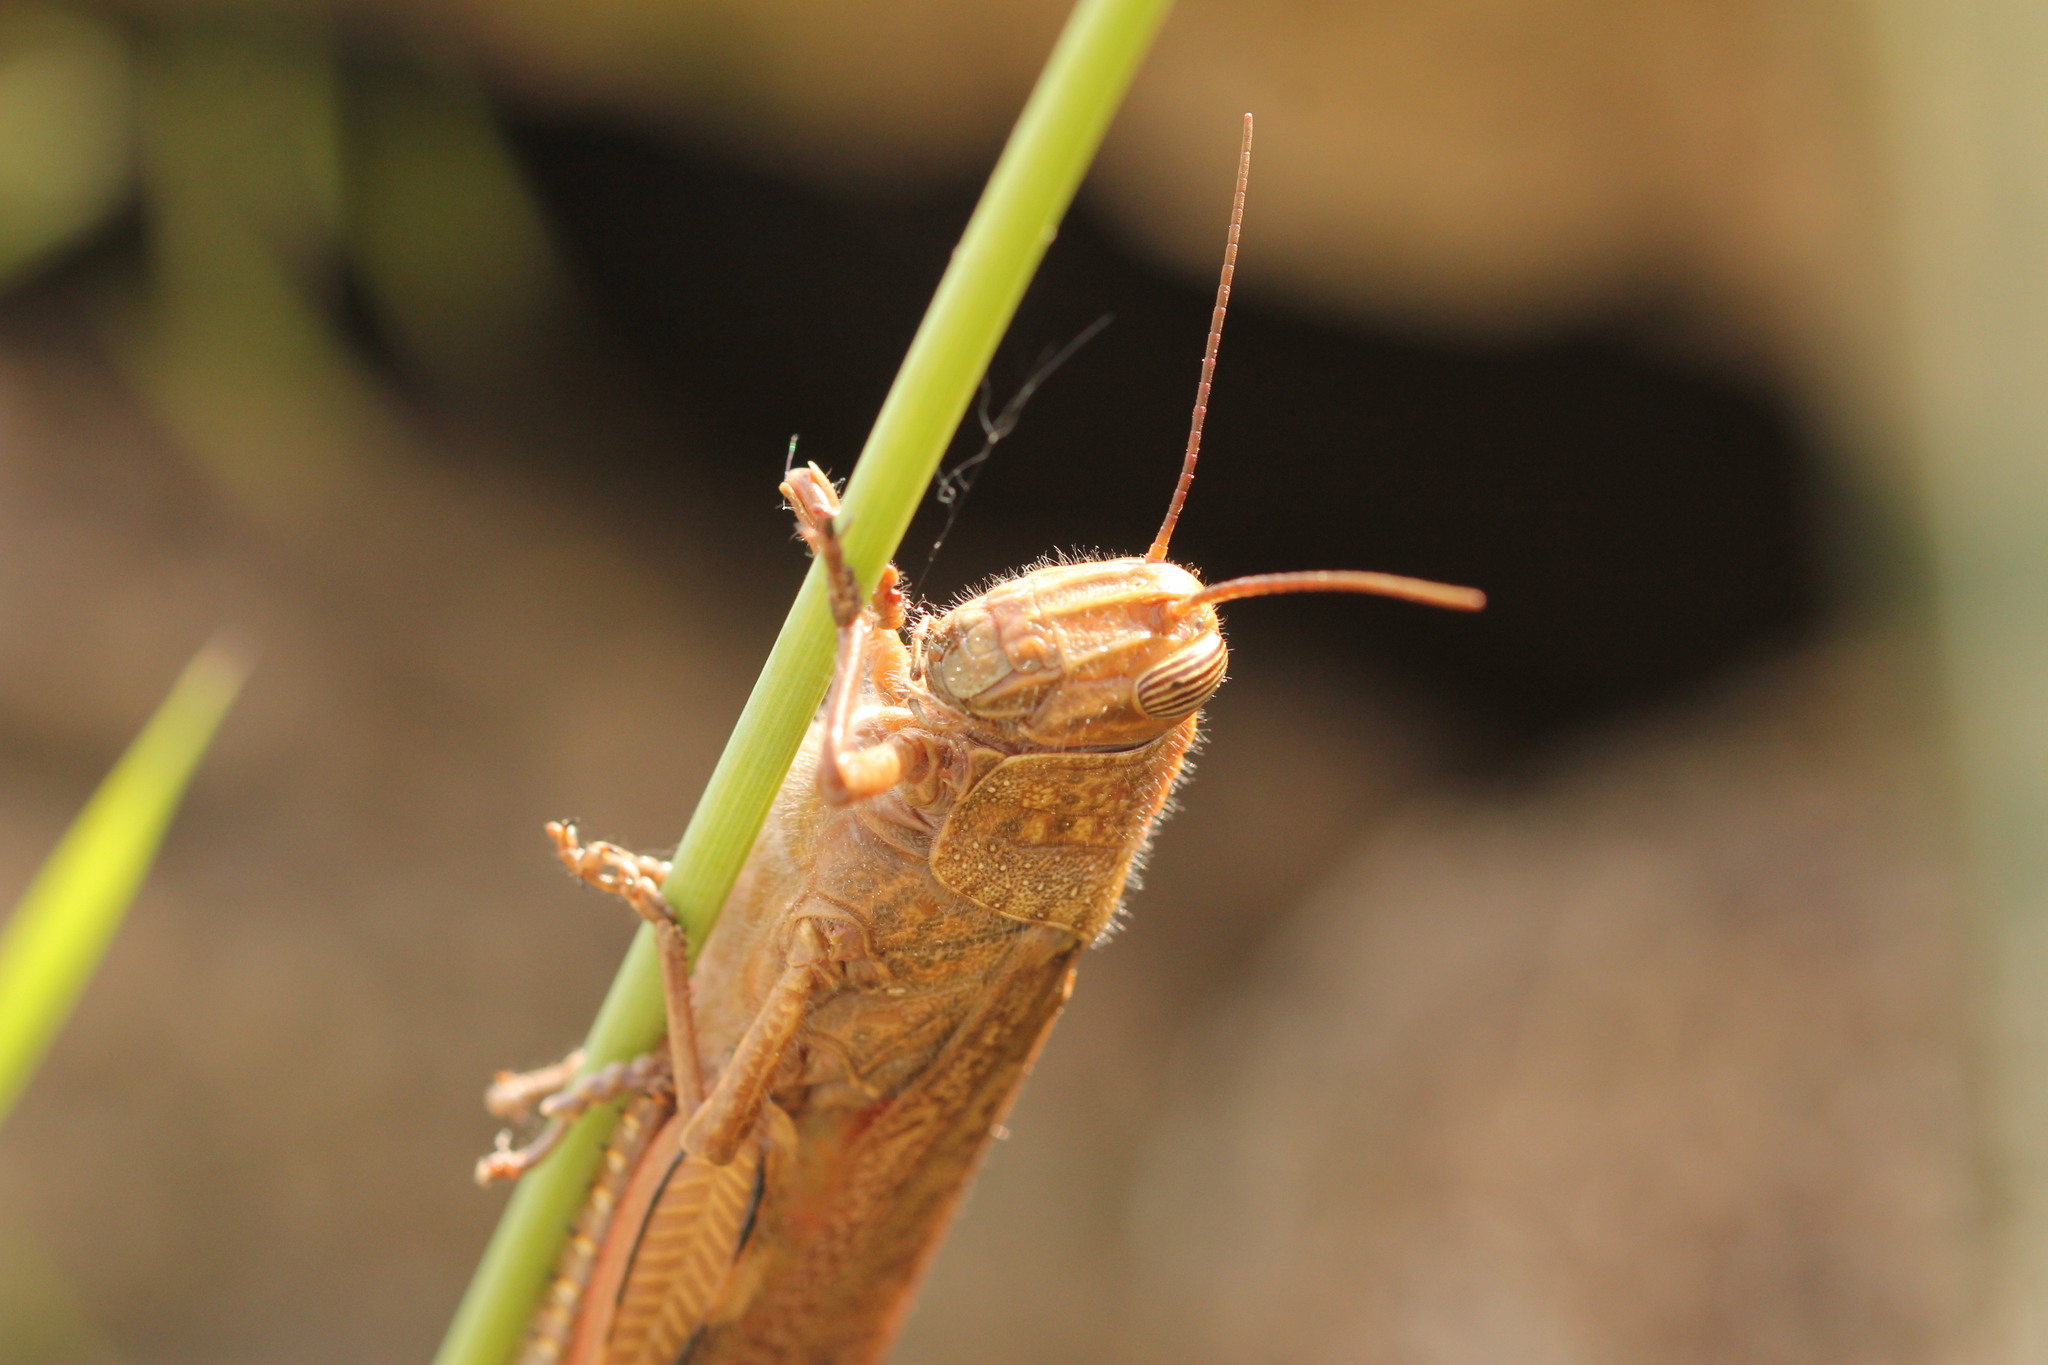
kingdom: Animalia
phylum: Arthropoda
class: Insecta
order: Orthoptera
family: Acrididae
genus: Anacridium
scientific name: Anacridium aegyptium
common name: Egyptian grasshopper
